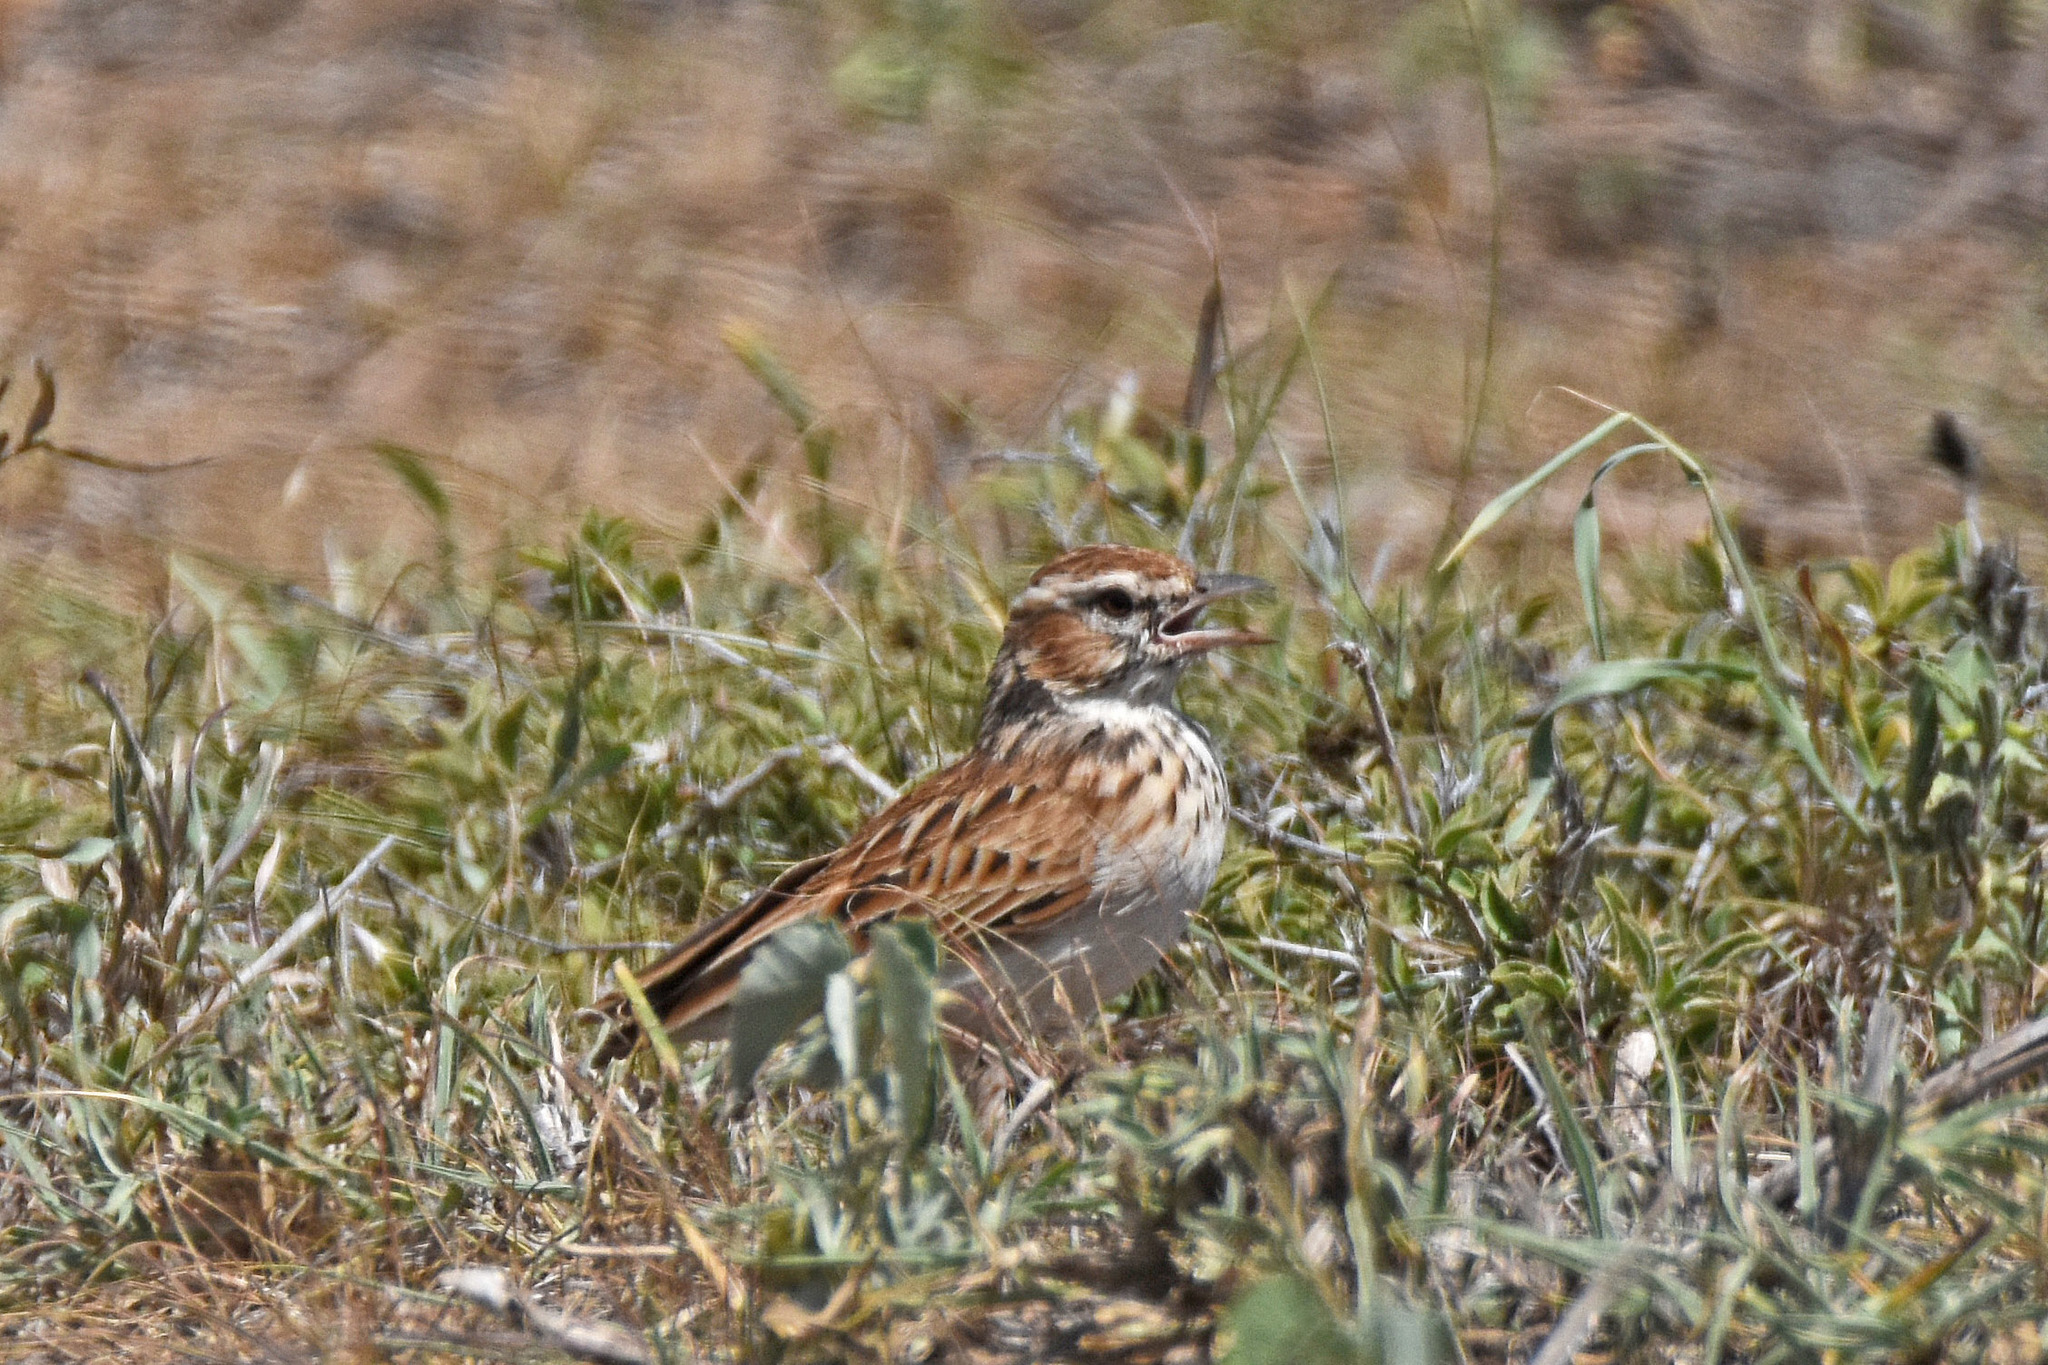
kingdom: Animalia
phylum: Chordata
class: Aves
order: Passeriformes
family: Alaudidae
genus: Calendulauda
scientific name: Calendulauda africanoides
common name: Fawn-colored lark
